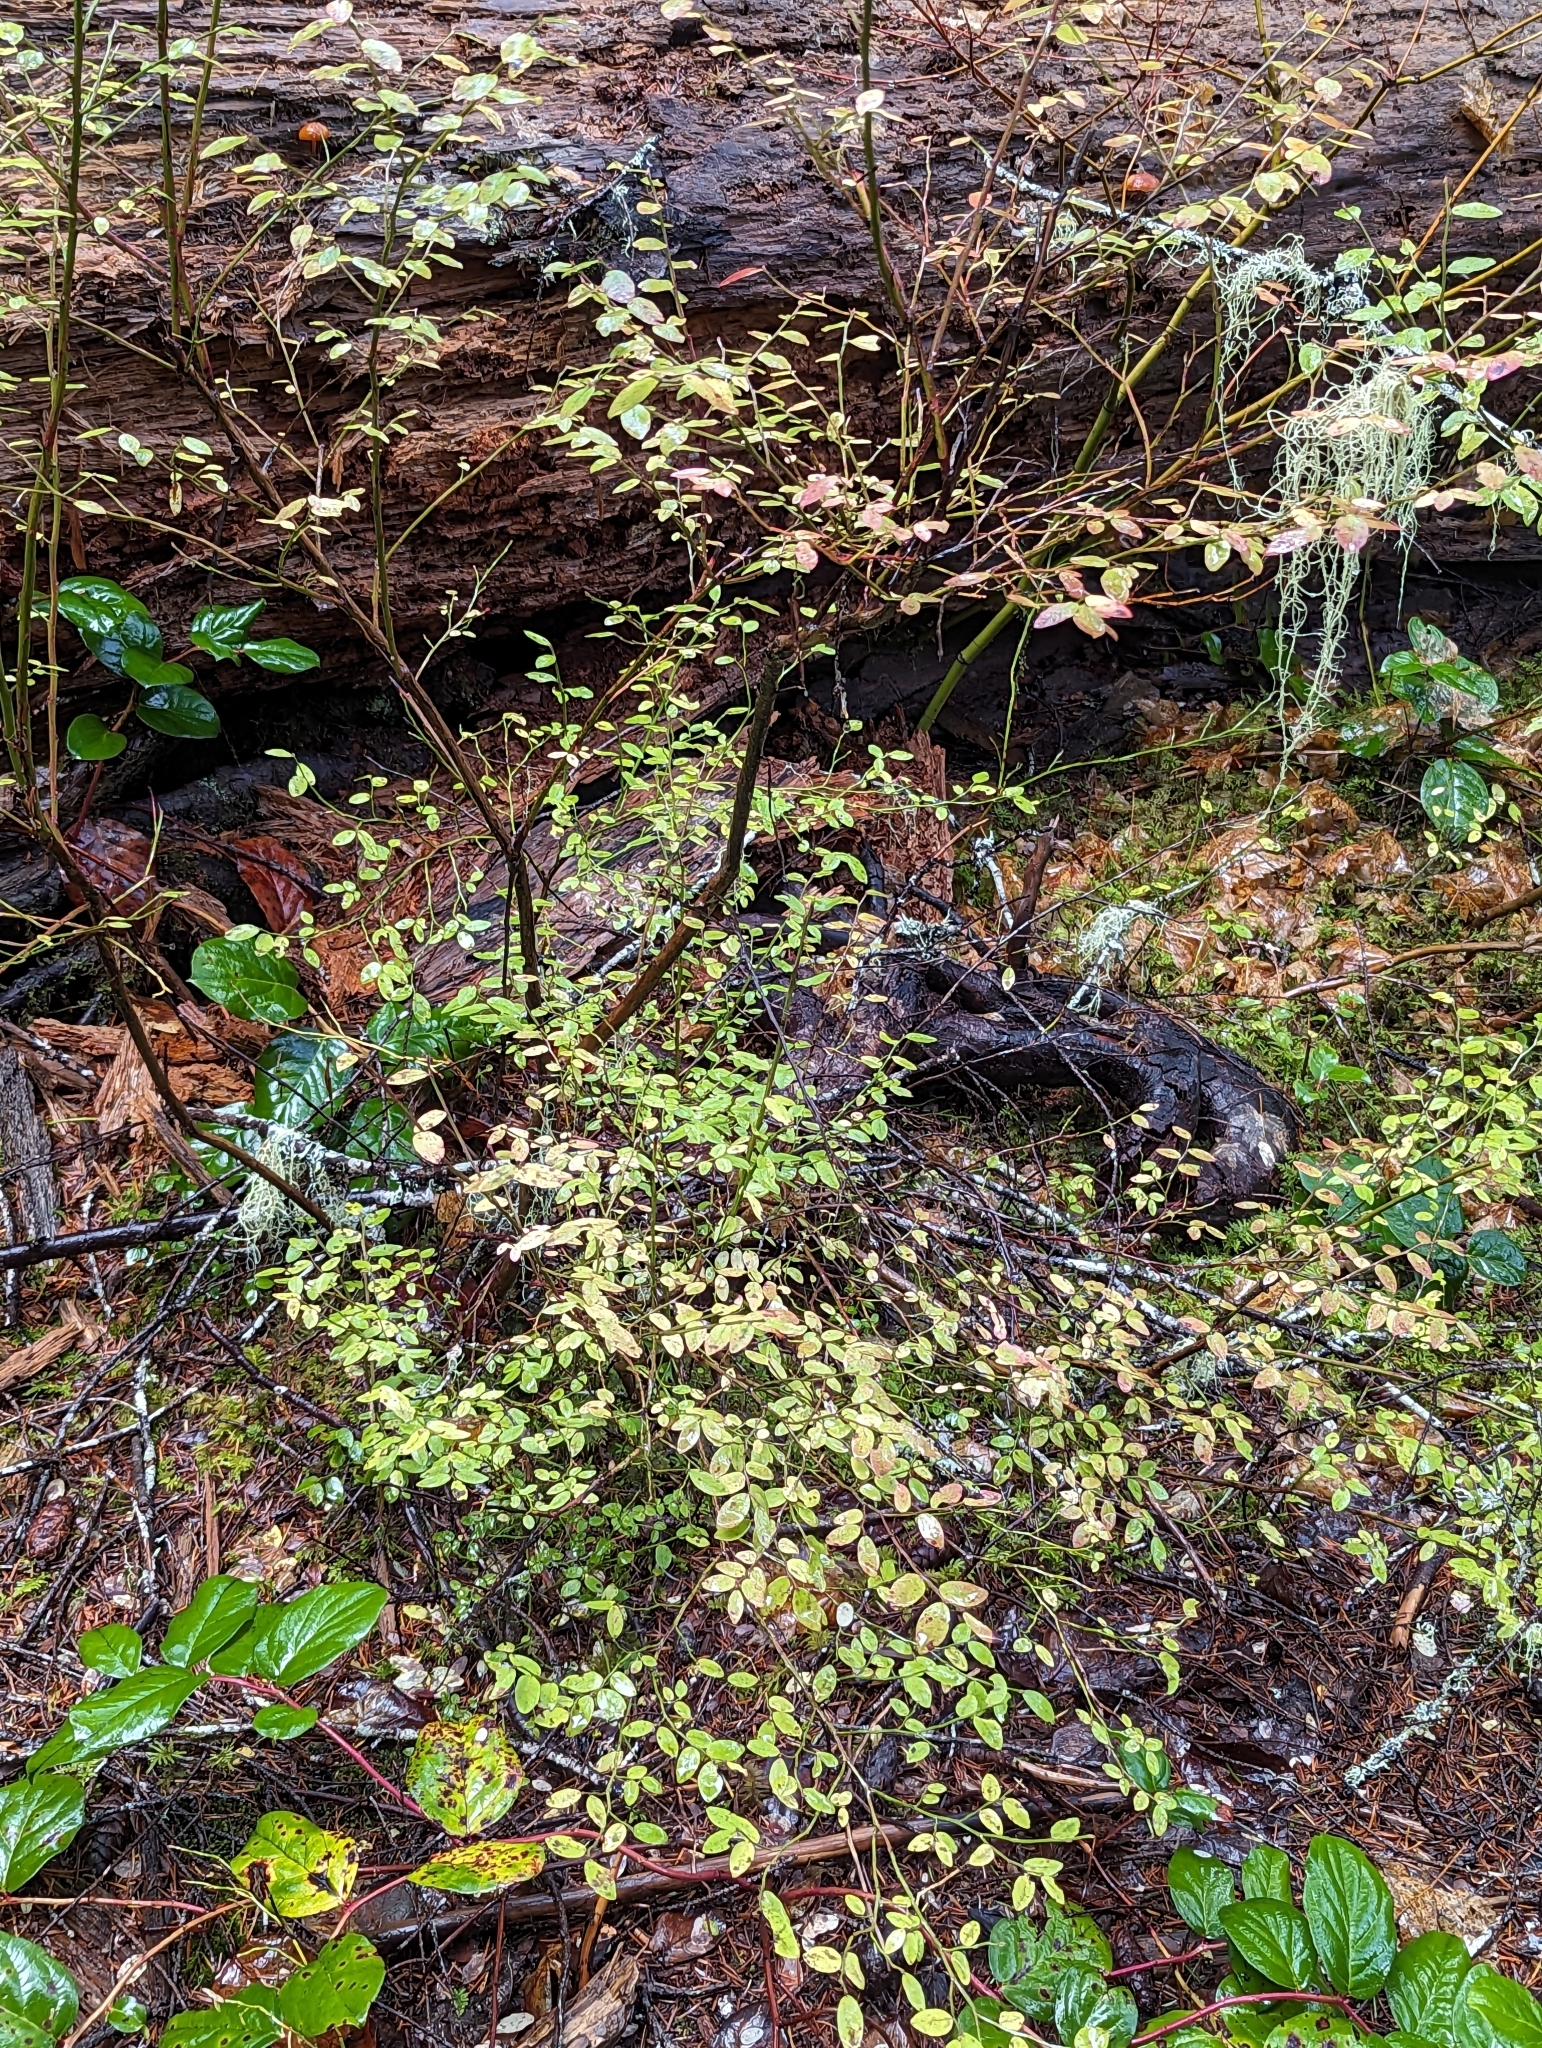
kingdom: Plantae
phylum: Tracheophyta
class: Magnoliopsida
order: Ericales
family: Ericaceae
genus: Vaccinium
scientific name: Vaccinium parvifolium
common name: Red-huckleberry
